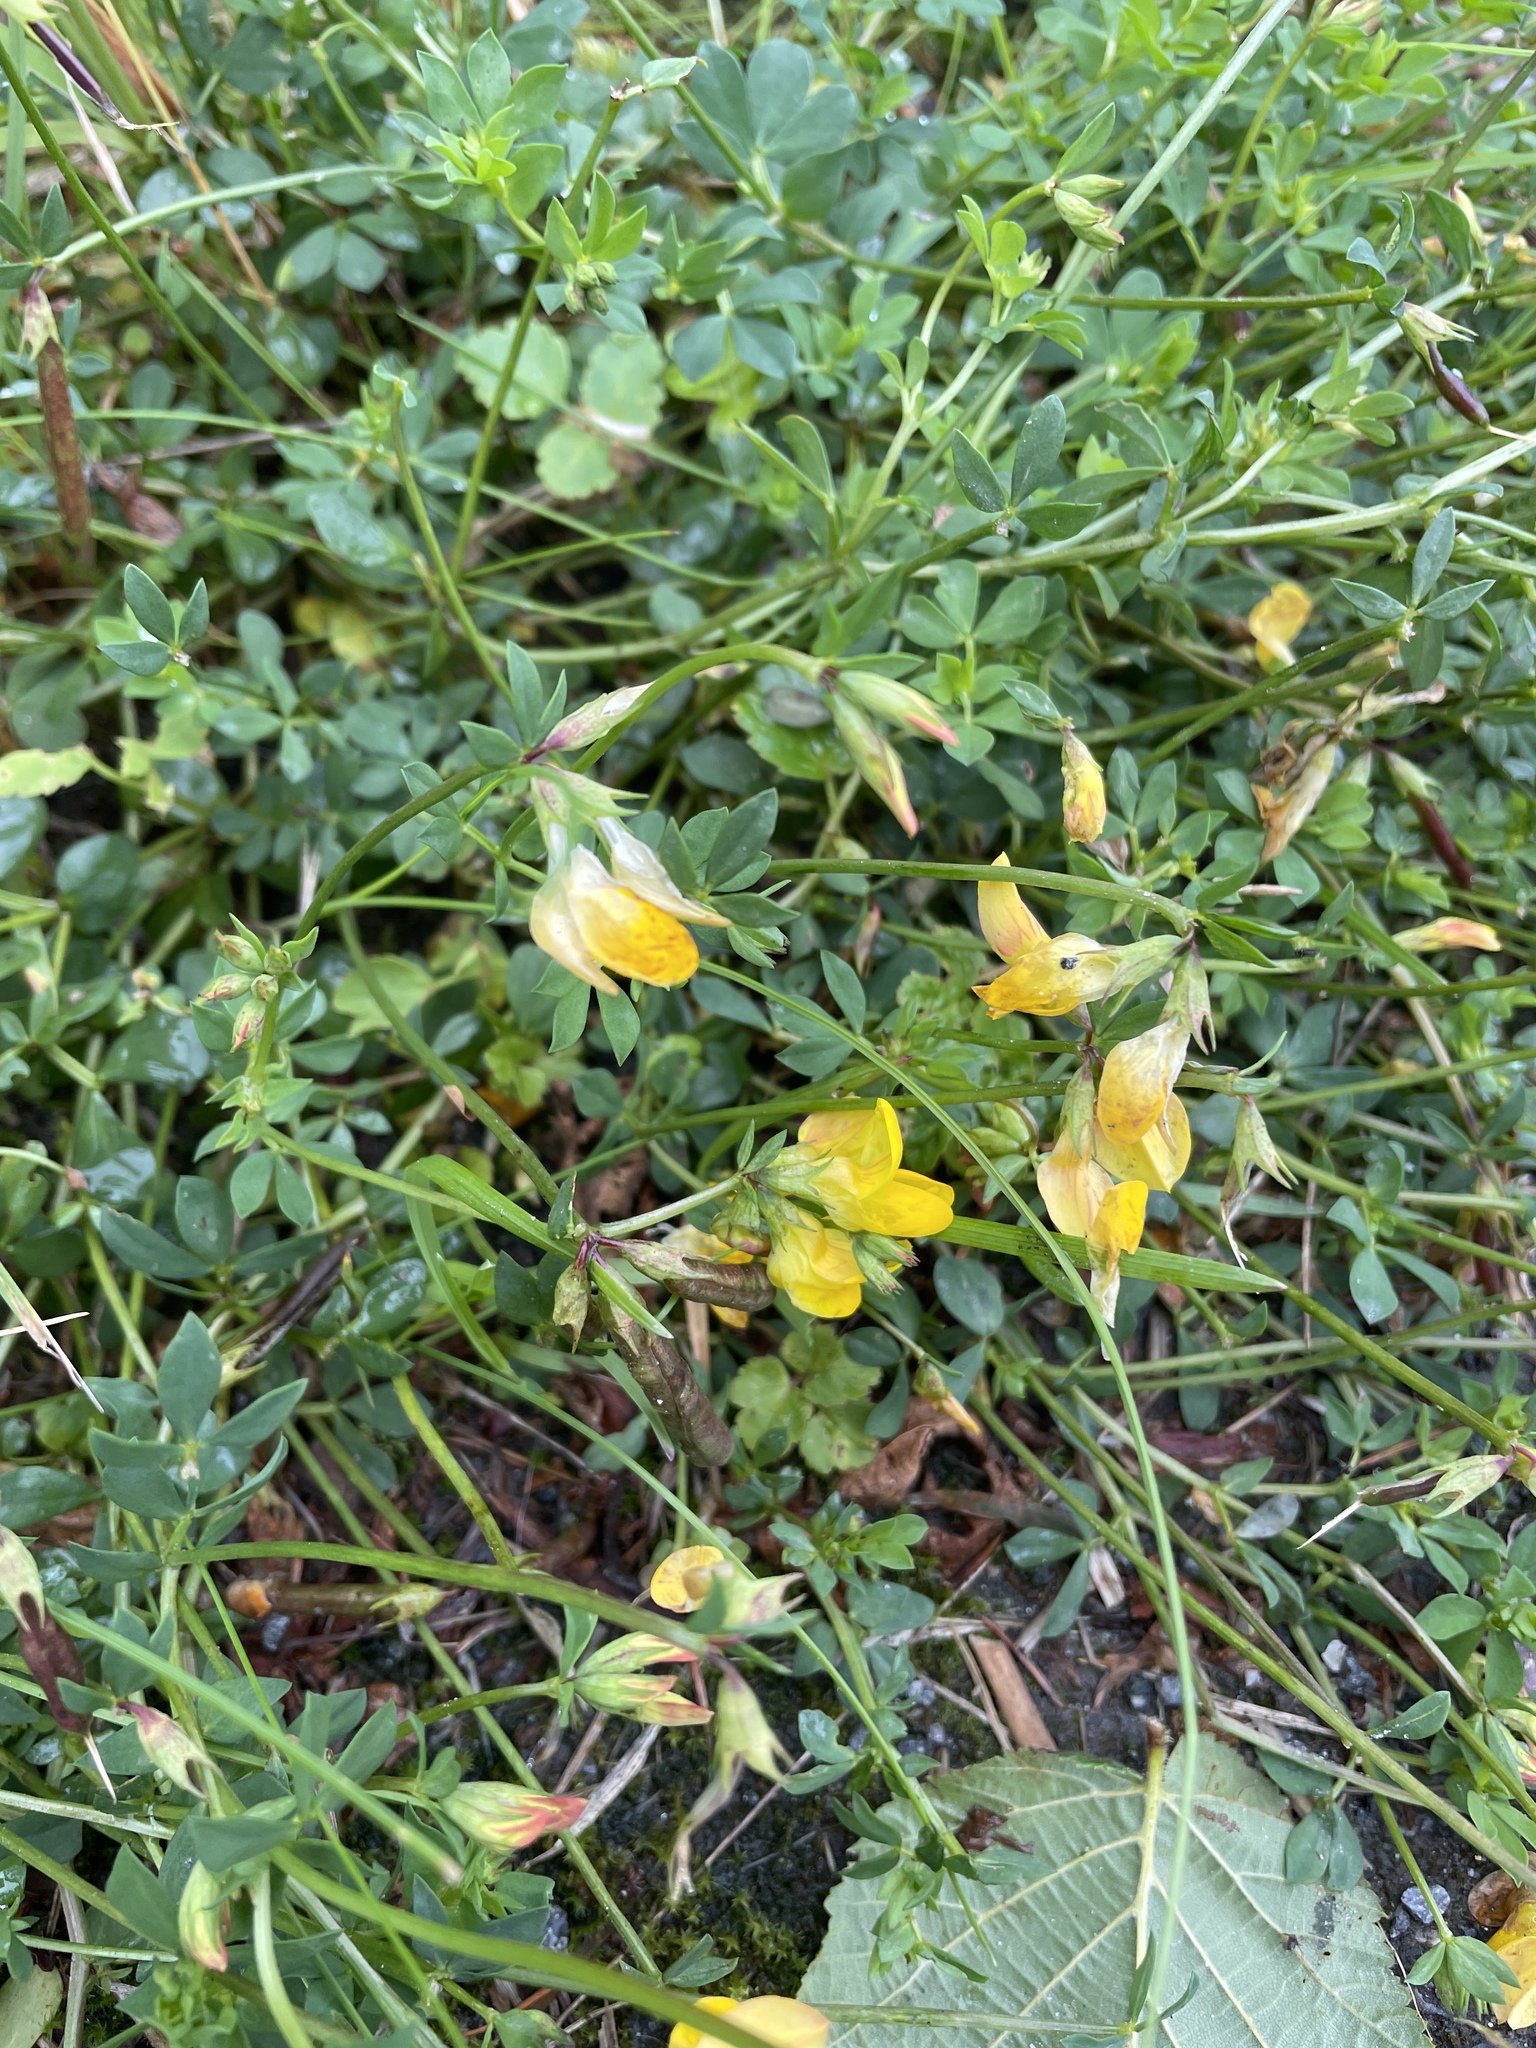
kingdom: Plantae
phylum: Tracheophyta
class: Magnoliopsida
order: Fabales
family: Fabaceae
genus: Lotus
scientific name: Lotus corniculatus
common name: Common bird's-foot-trefoil
